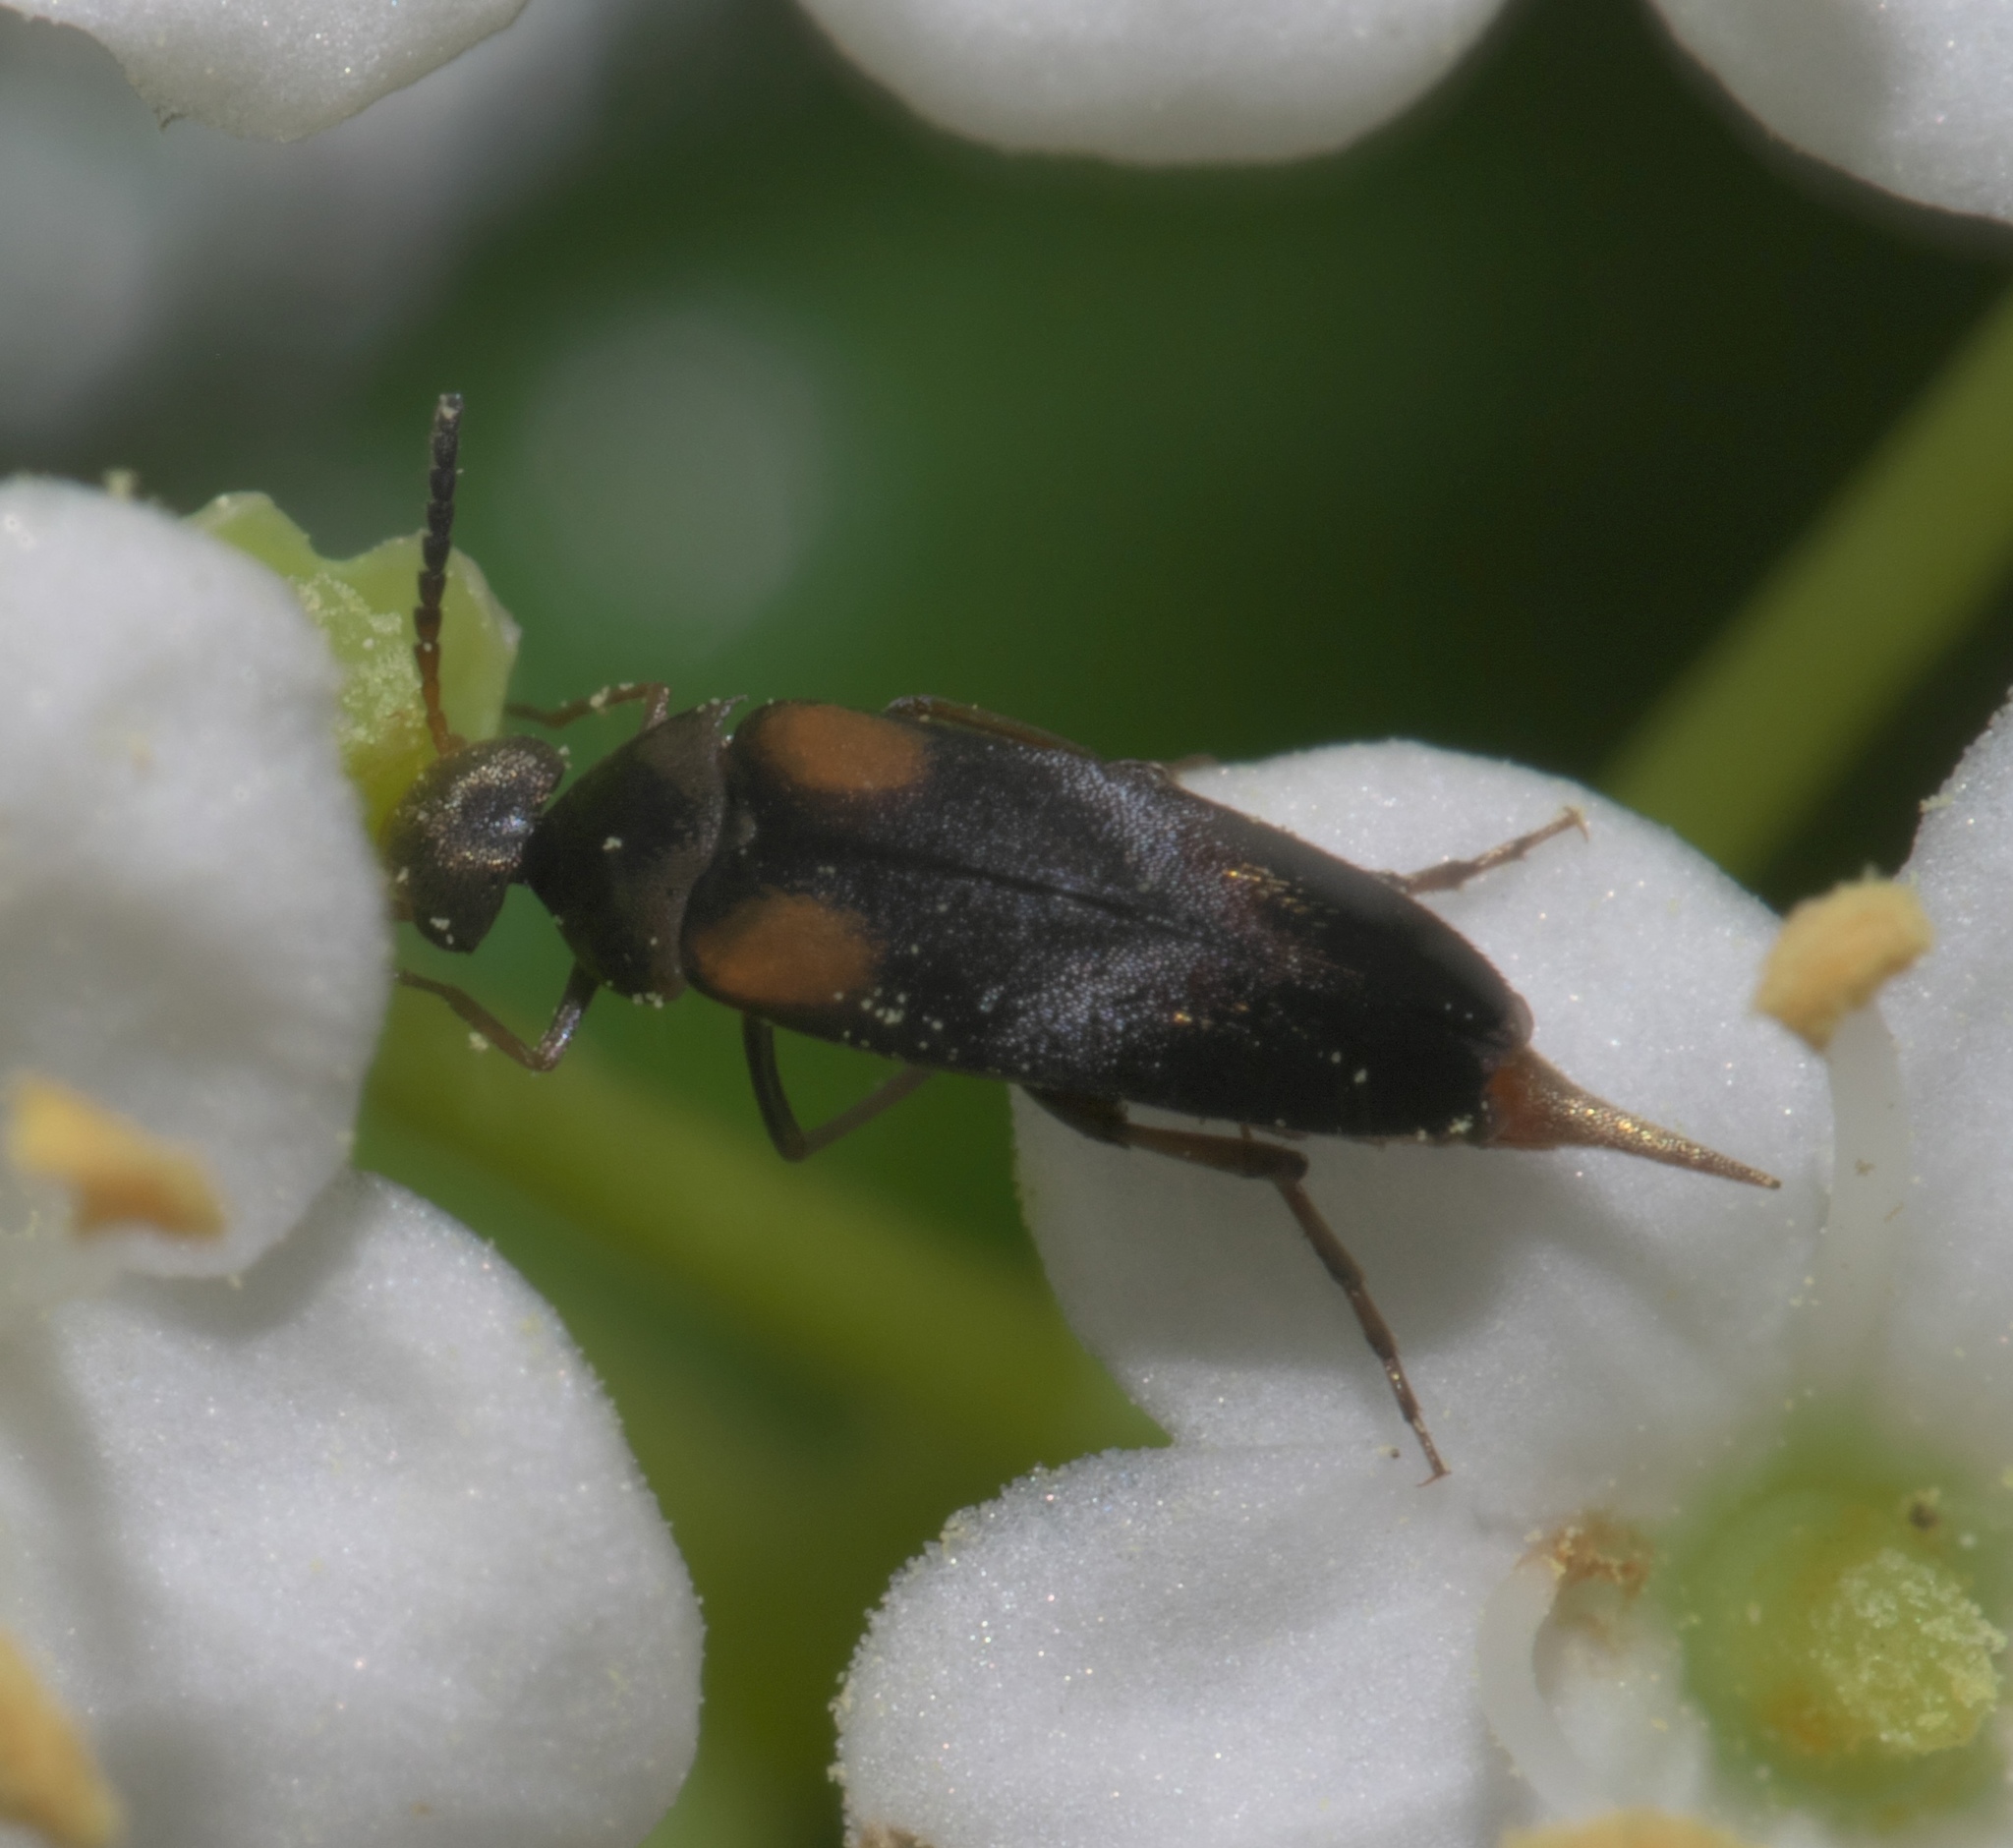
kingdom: Animalia
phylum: Arthropoda
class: Insecta
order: Coleoptera
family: Mordellidae
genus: Mordellochroa
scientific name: Mordellochroa scapularis
